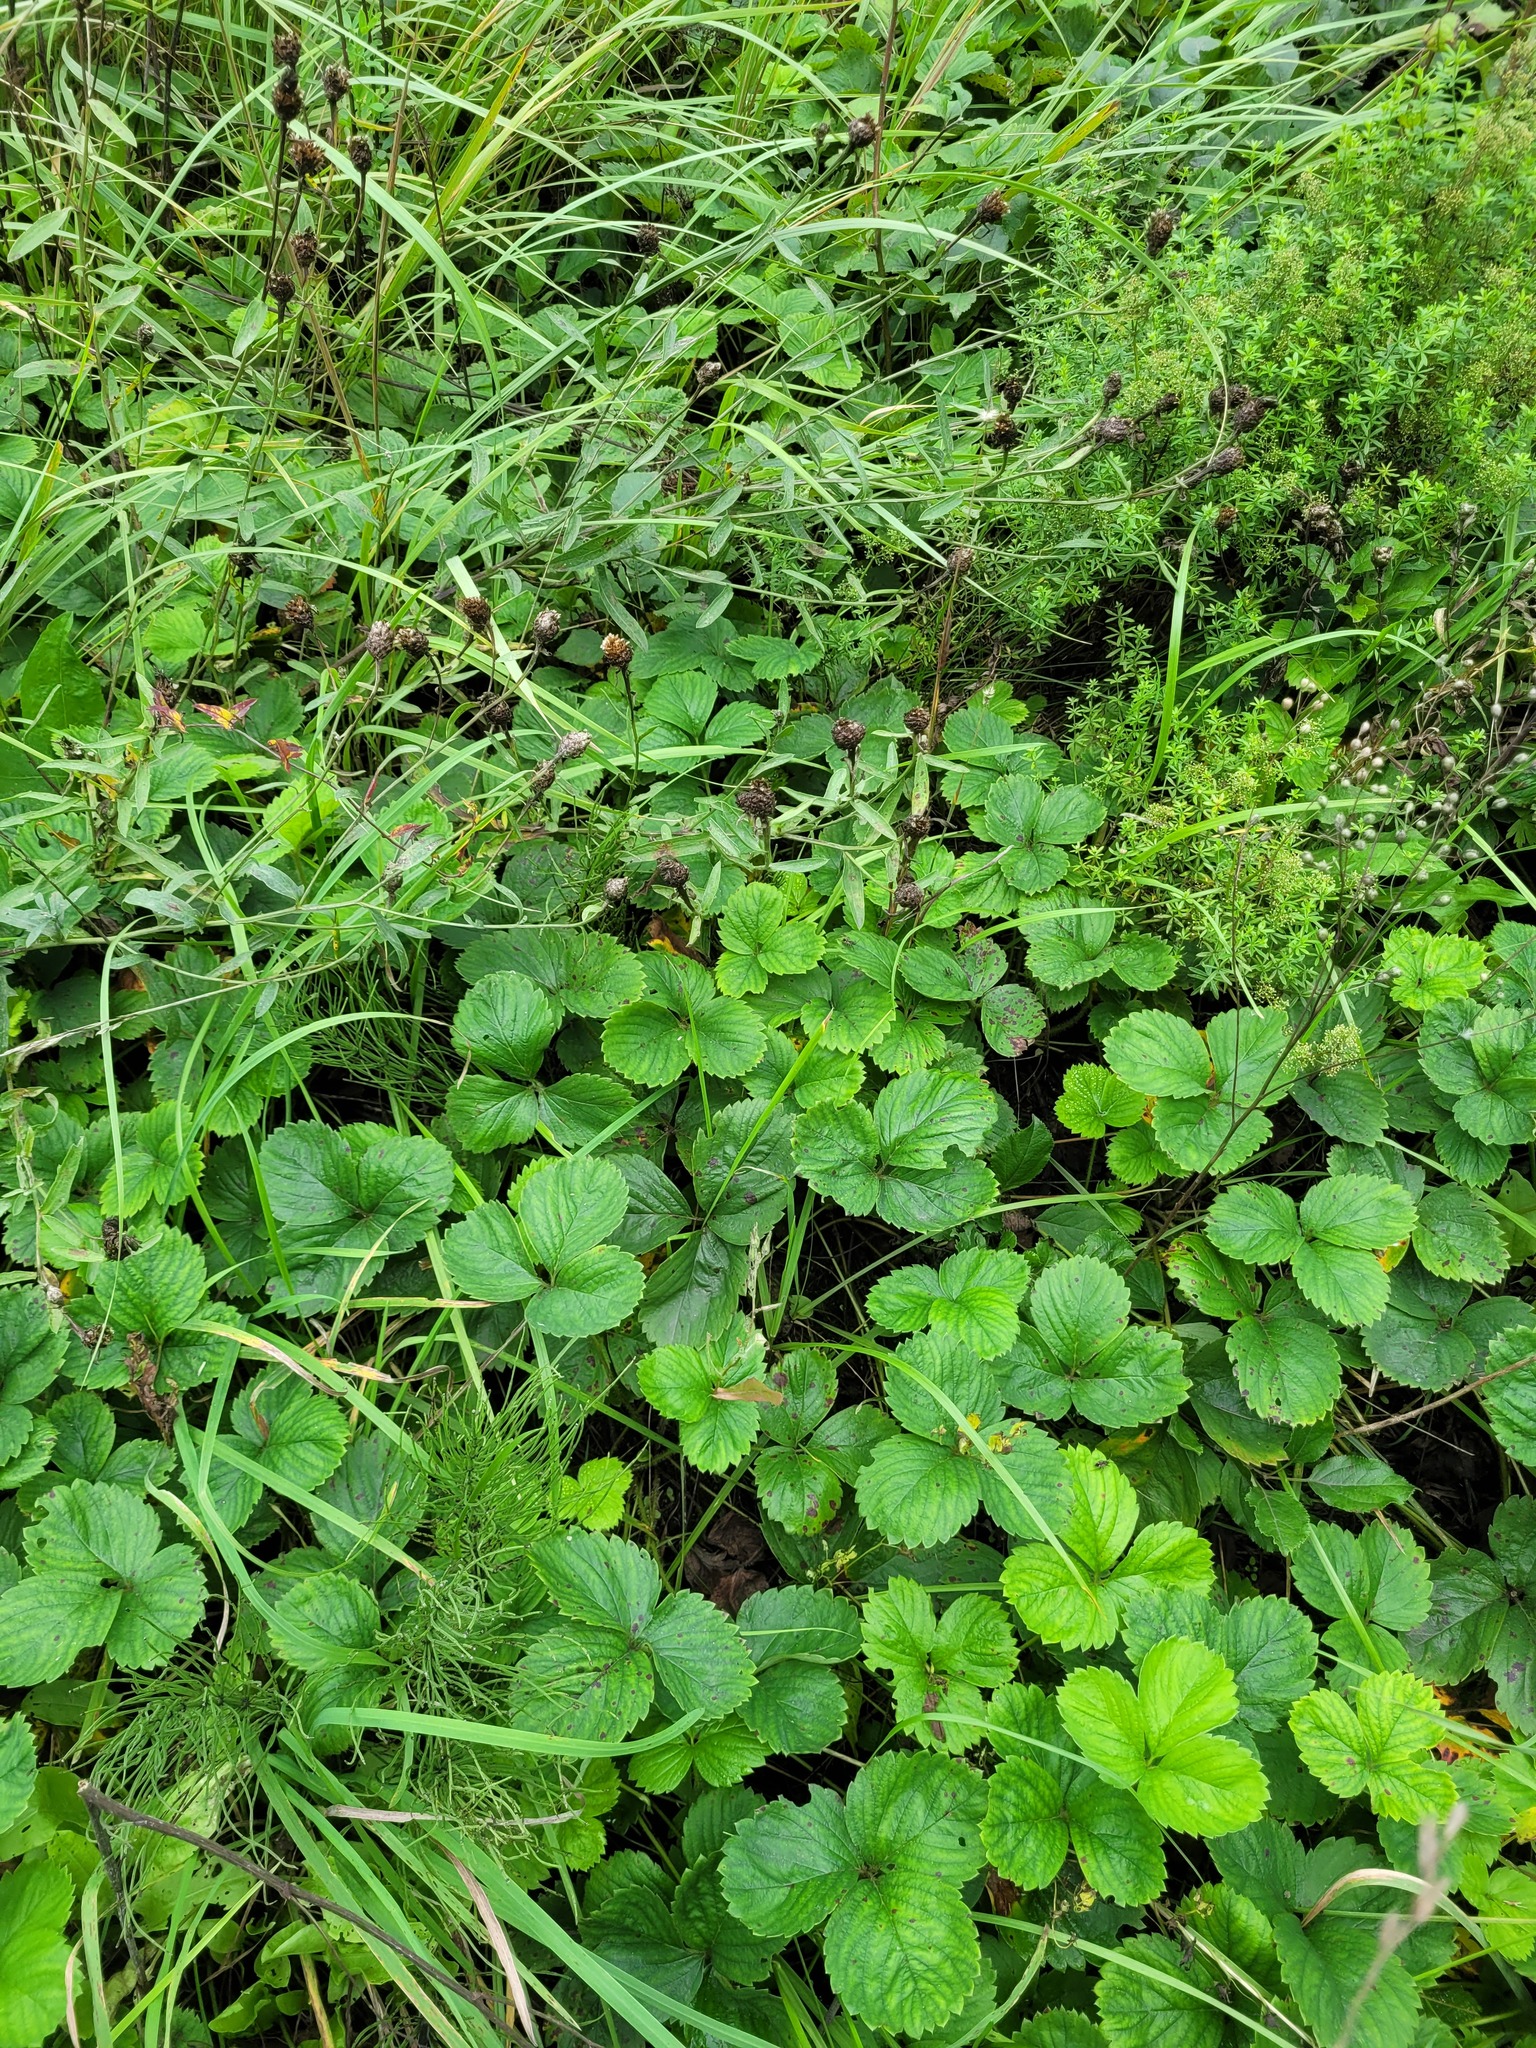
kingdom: Plantae
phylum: Tracheophyta
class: Magnoliopsida
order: Rosales
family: Rosaceae
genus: Fragaria
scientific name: Fragaria ananassa
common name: Garden strawberry
